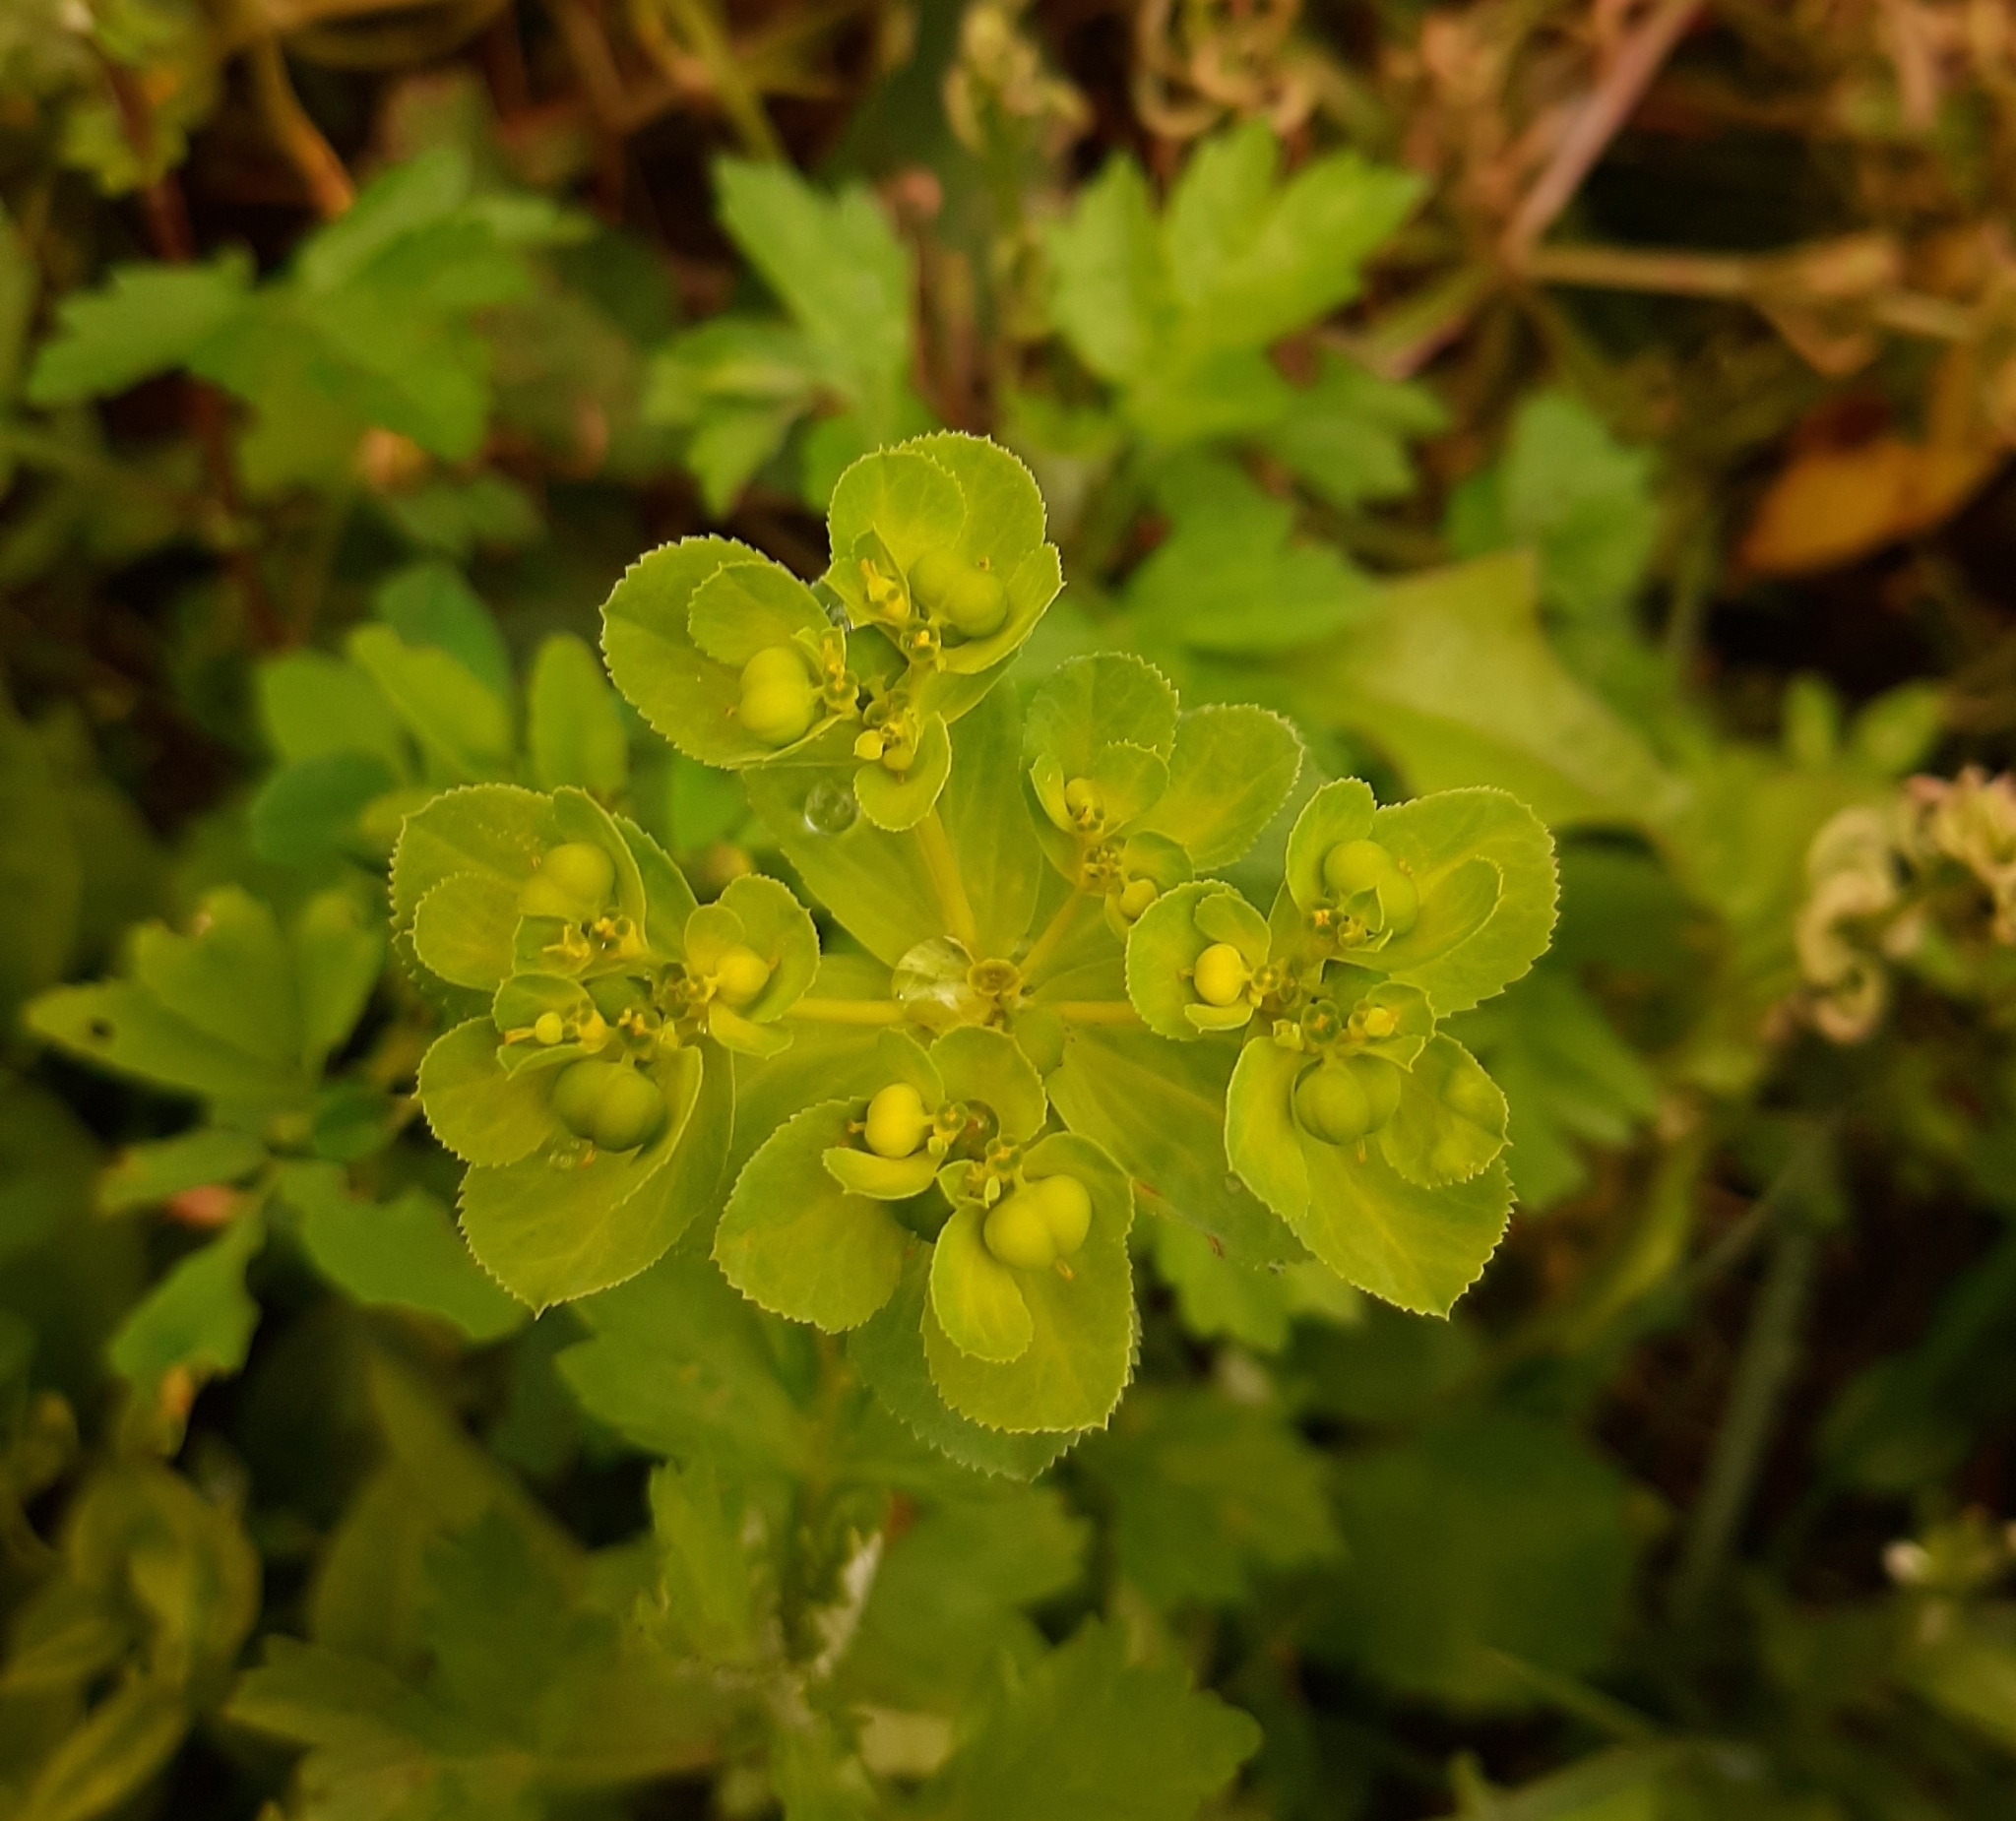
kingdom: Plantae
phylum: Tracheophyta
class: Magnoliopsida
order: Malpighiales
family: Euphorbiaceae
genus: Euphorbia
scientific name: Euphorbia helioscopia
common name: Sun spurge
